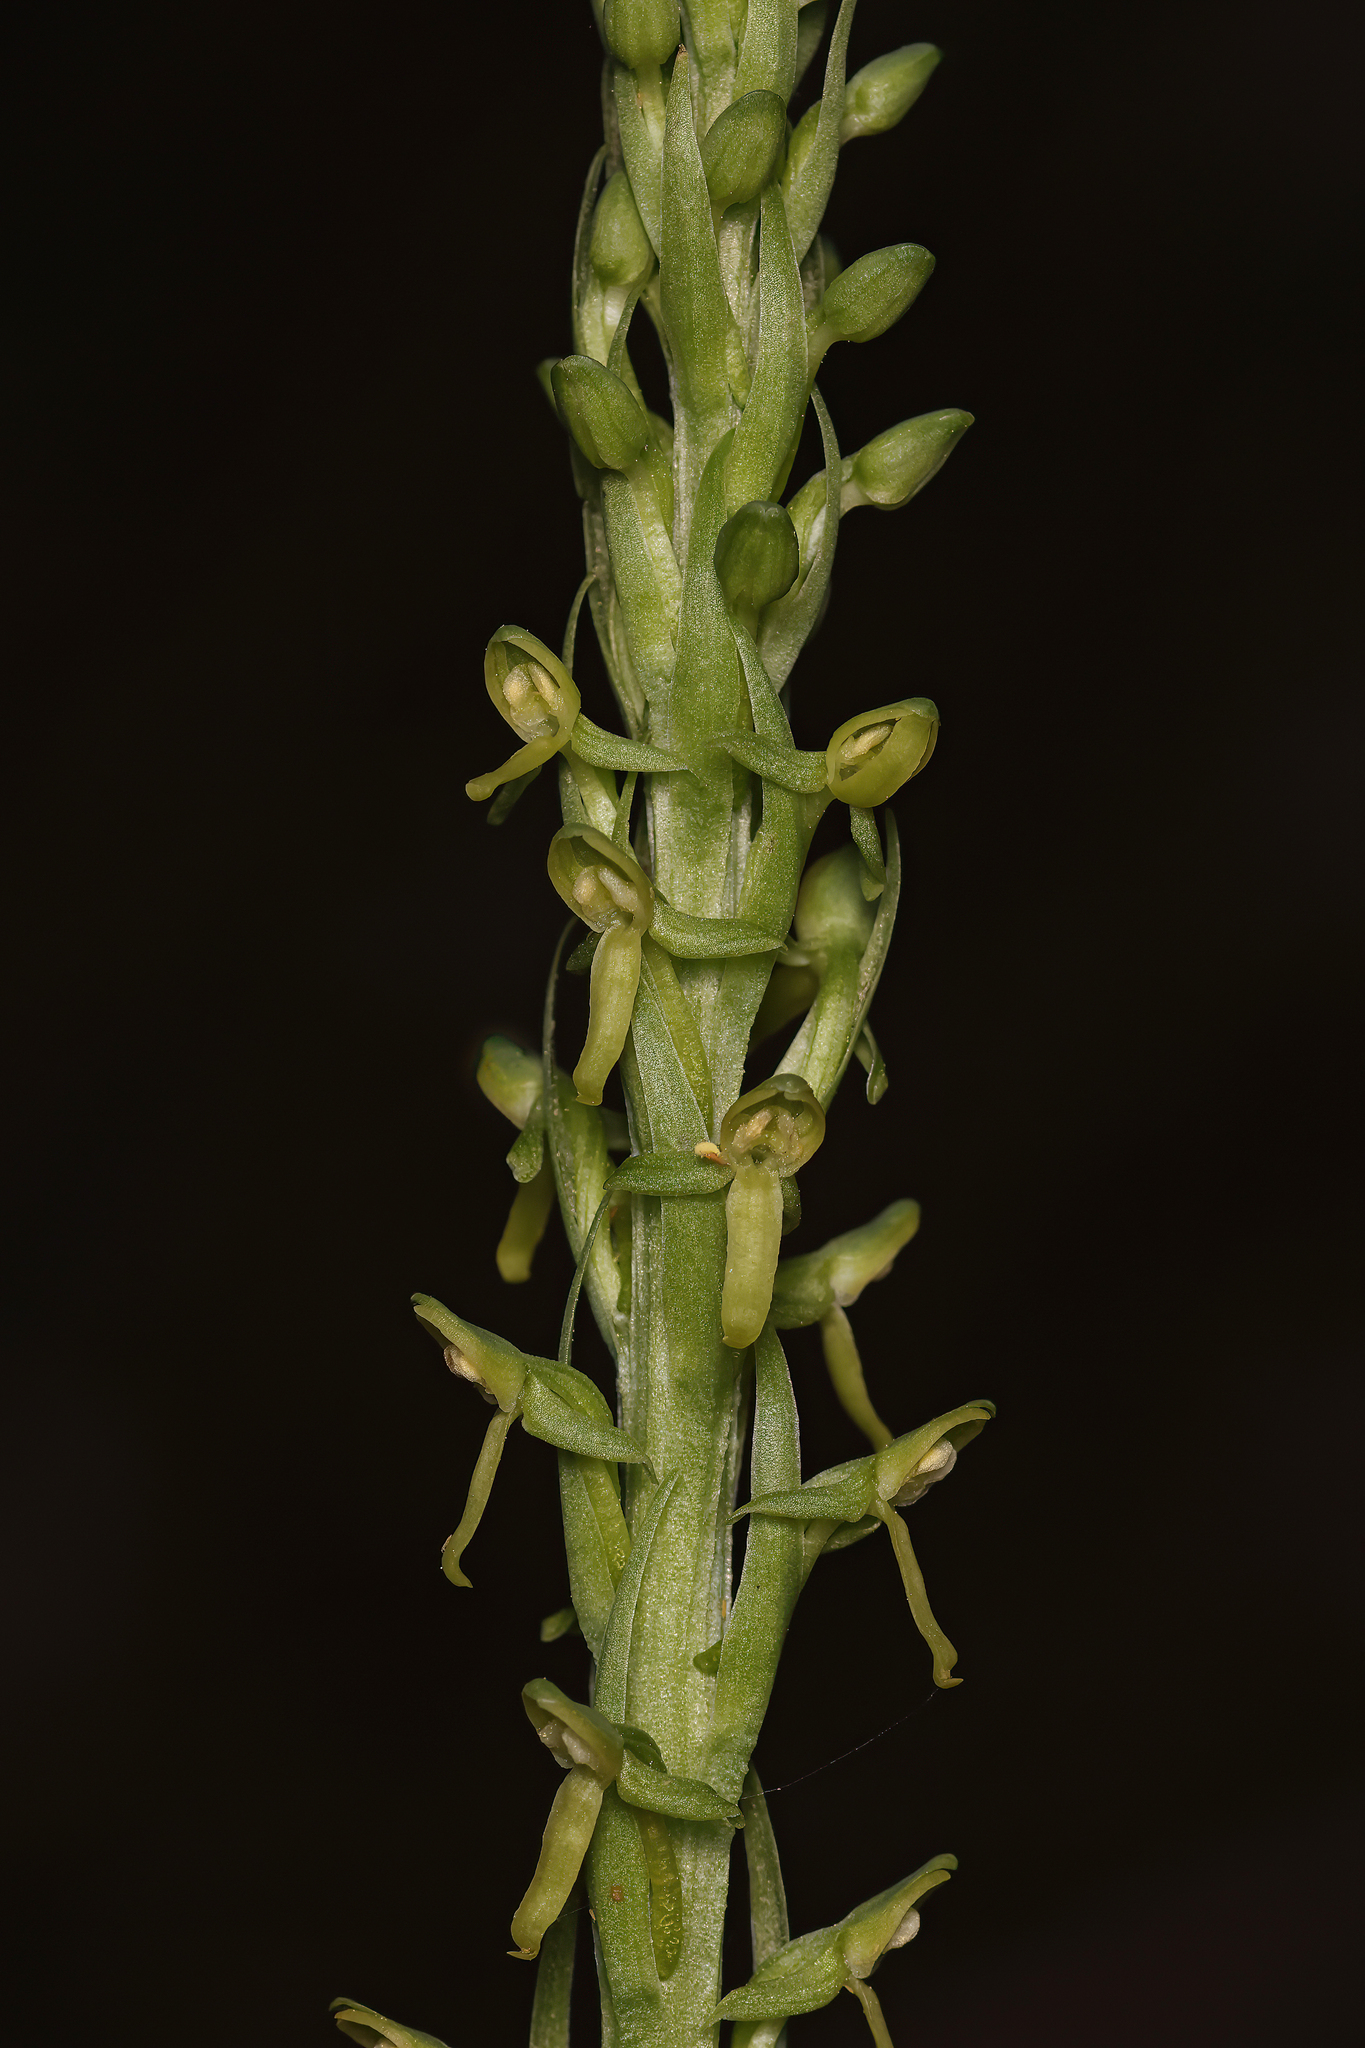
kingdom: Plantae
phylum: Tracheophyta
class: Liliopsida
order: Asparagales
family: Orchidaceae
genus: Platanthera
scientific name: Platanthera tescamnis
